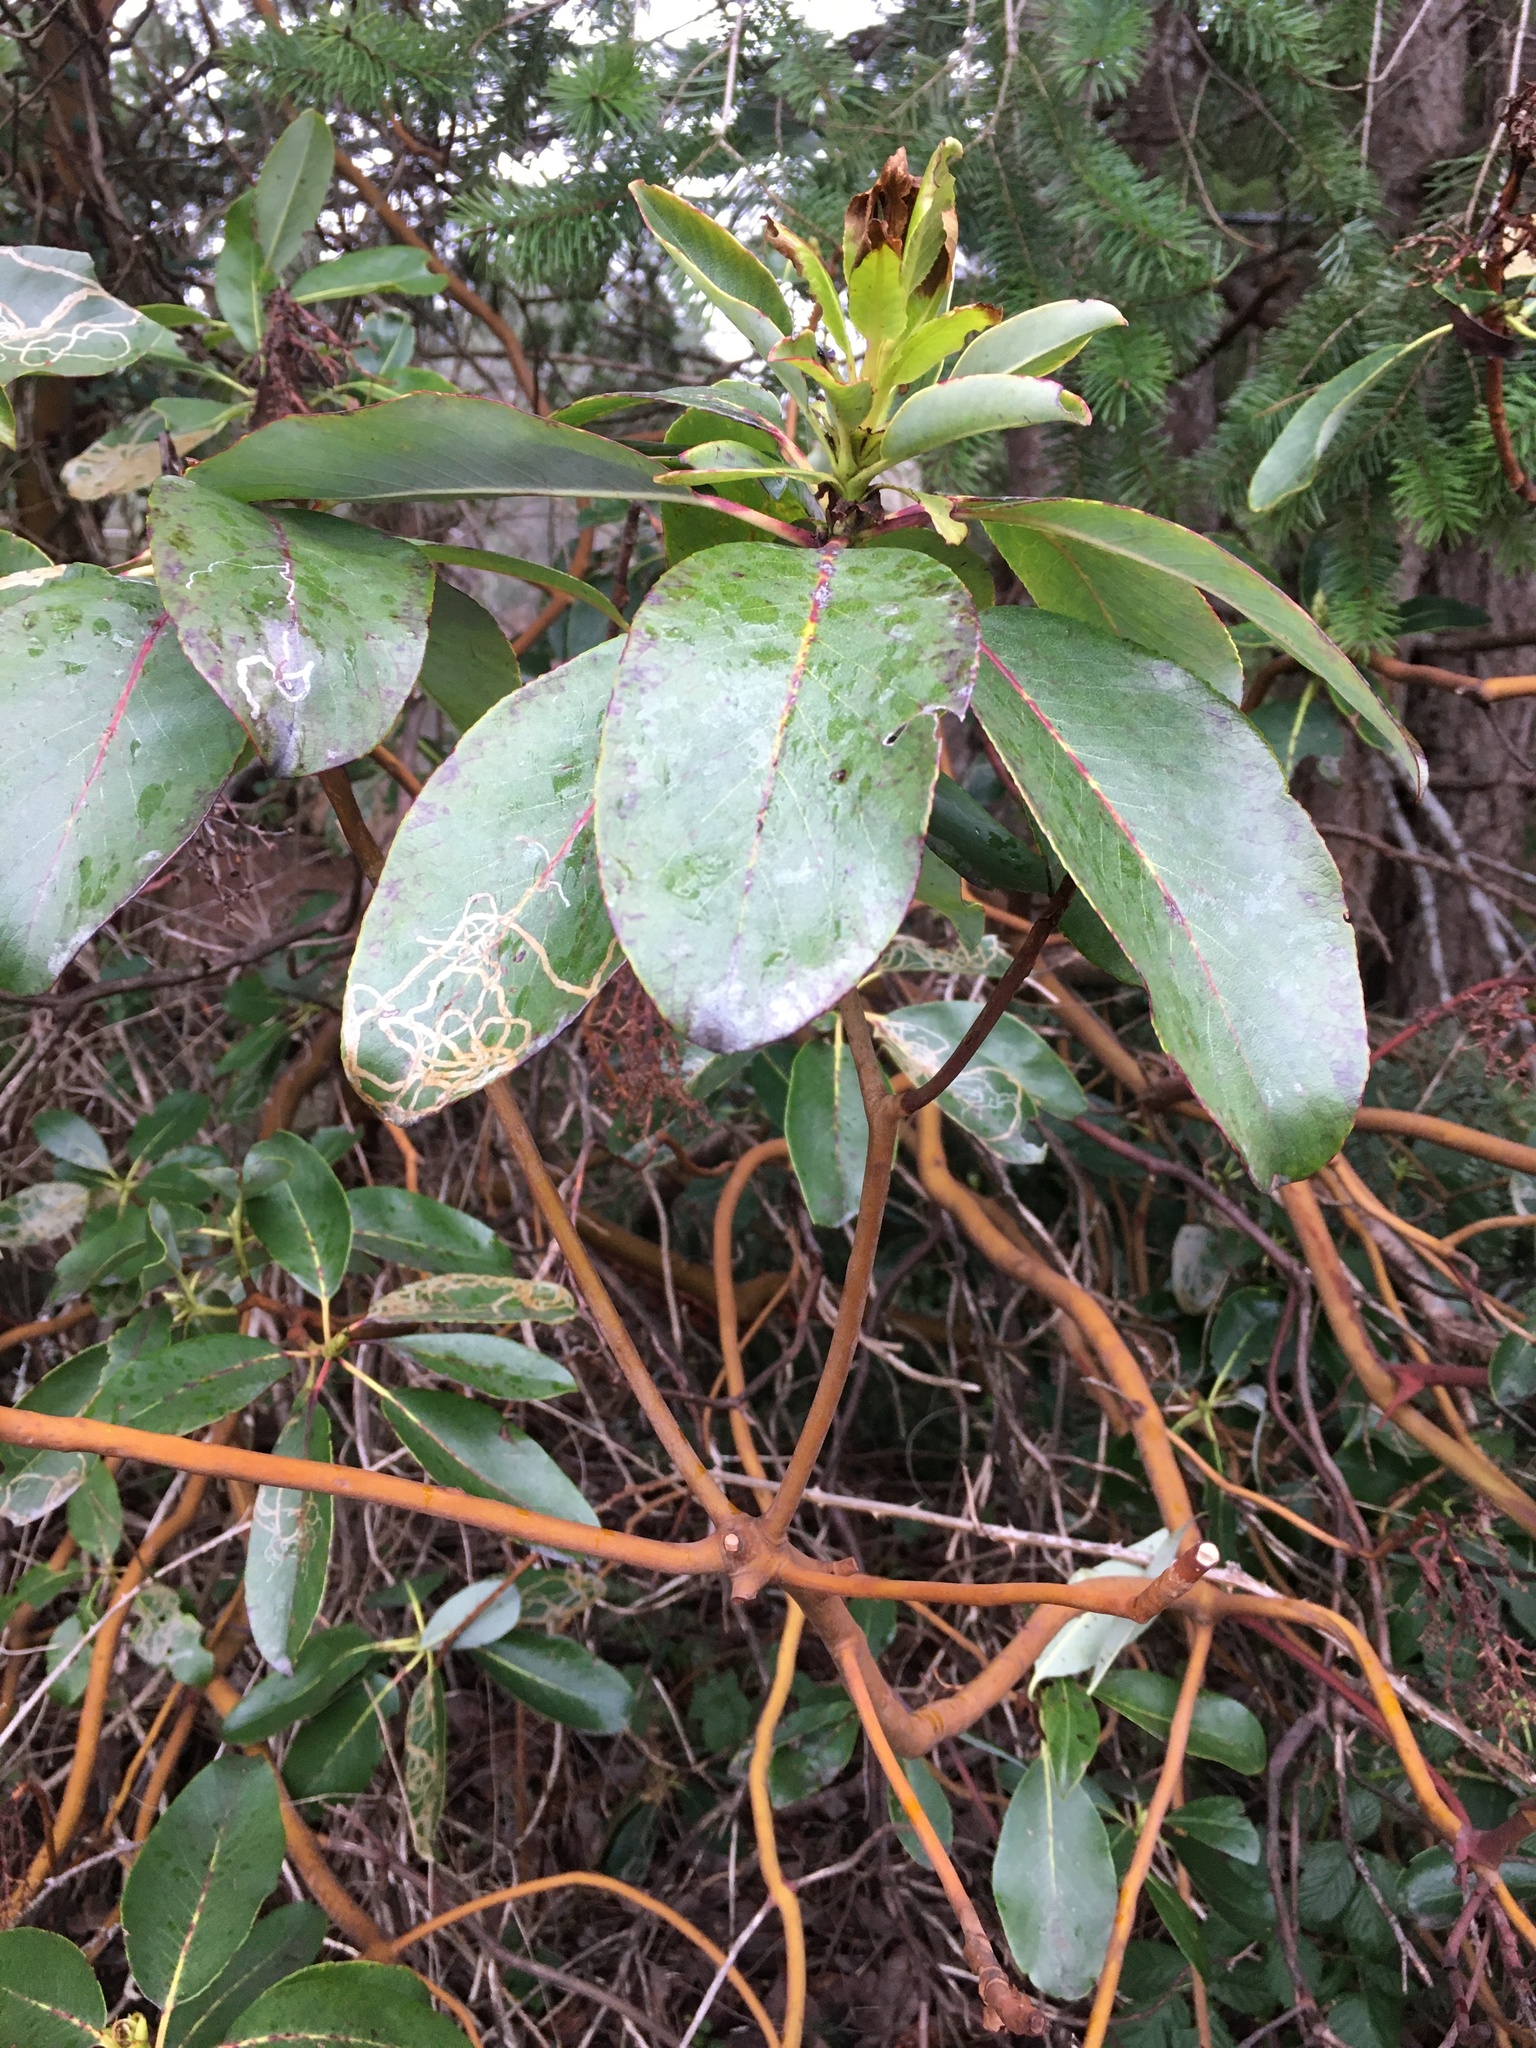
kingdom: Plantae
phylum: Tracheophyta
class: Magnoliopsida
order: Ericales
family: Ericaceae
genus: Arbutus
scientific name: Arbutus menziesii
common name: Pacific madrone
